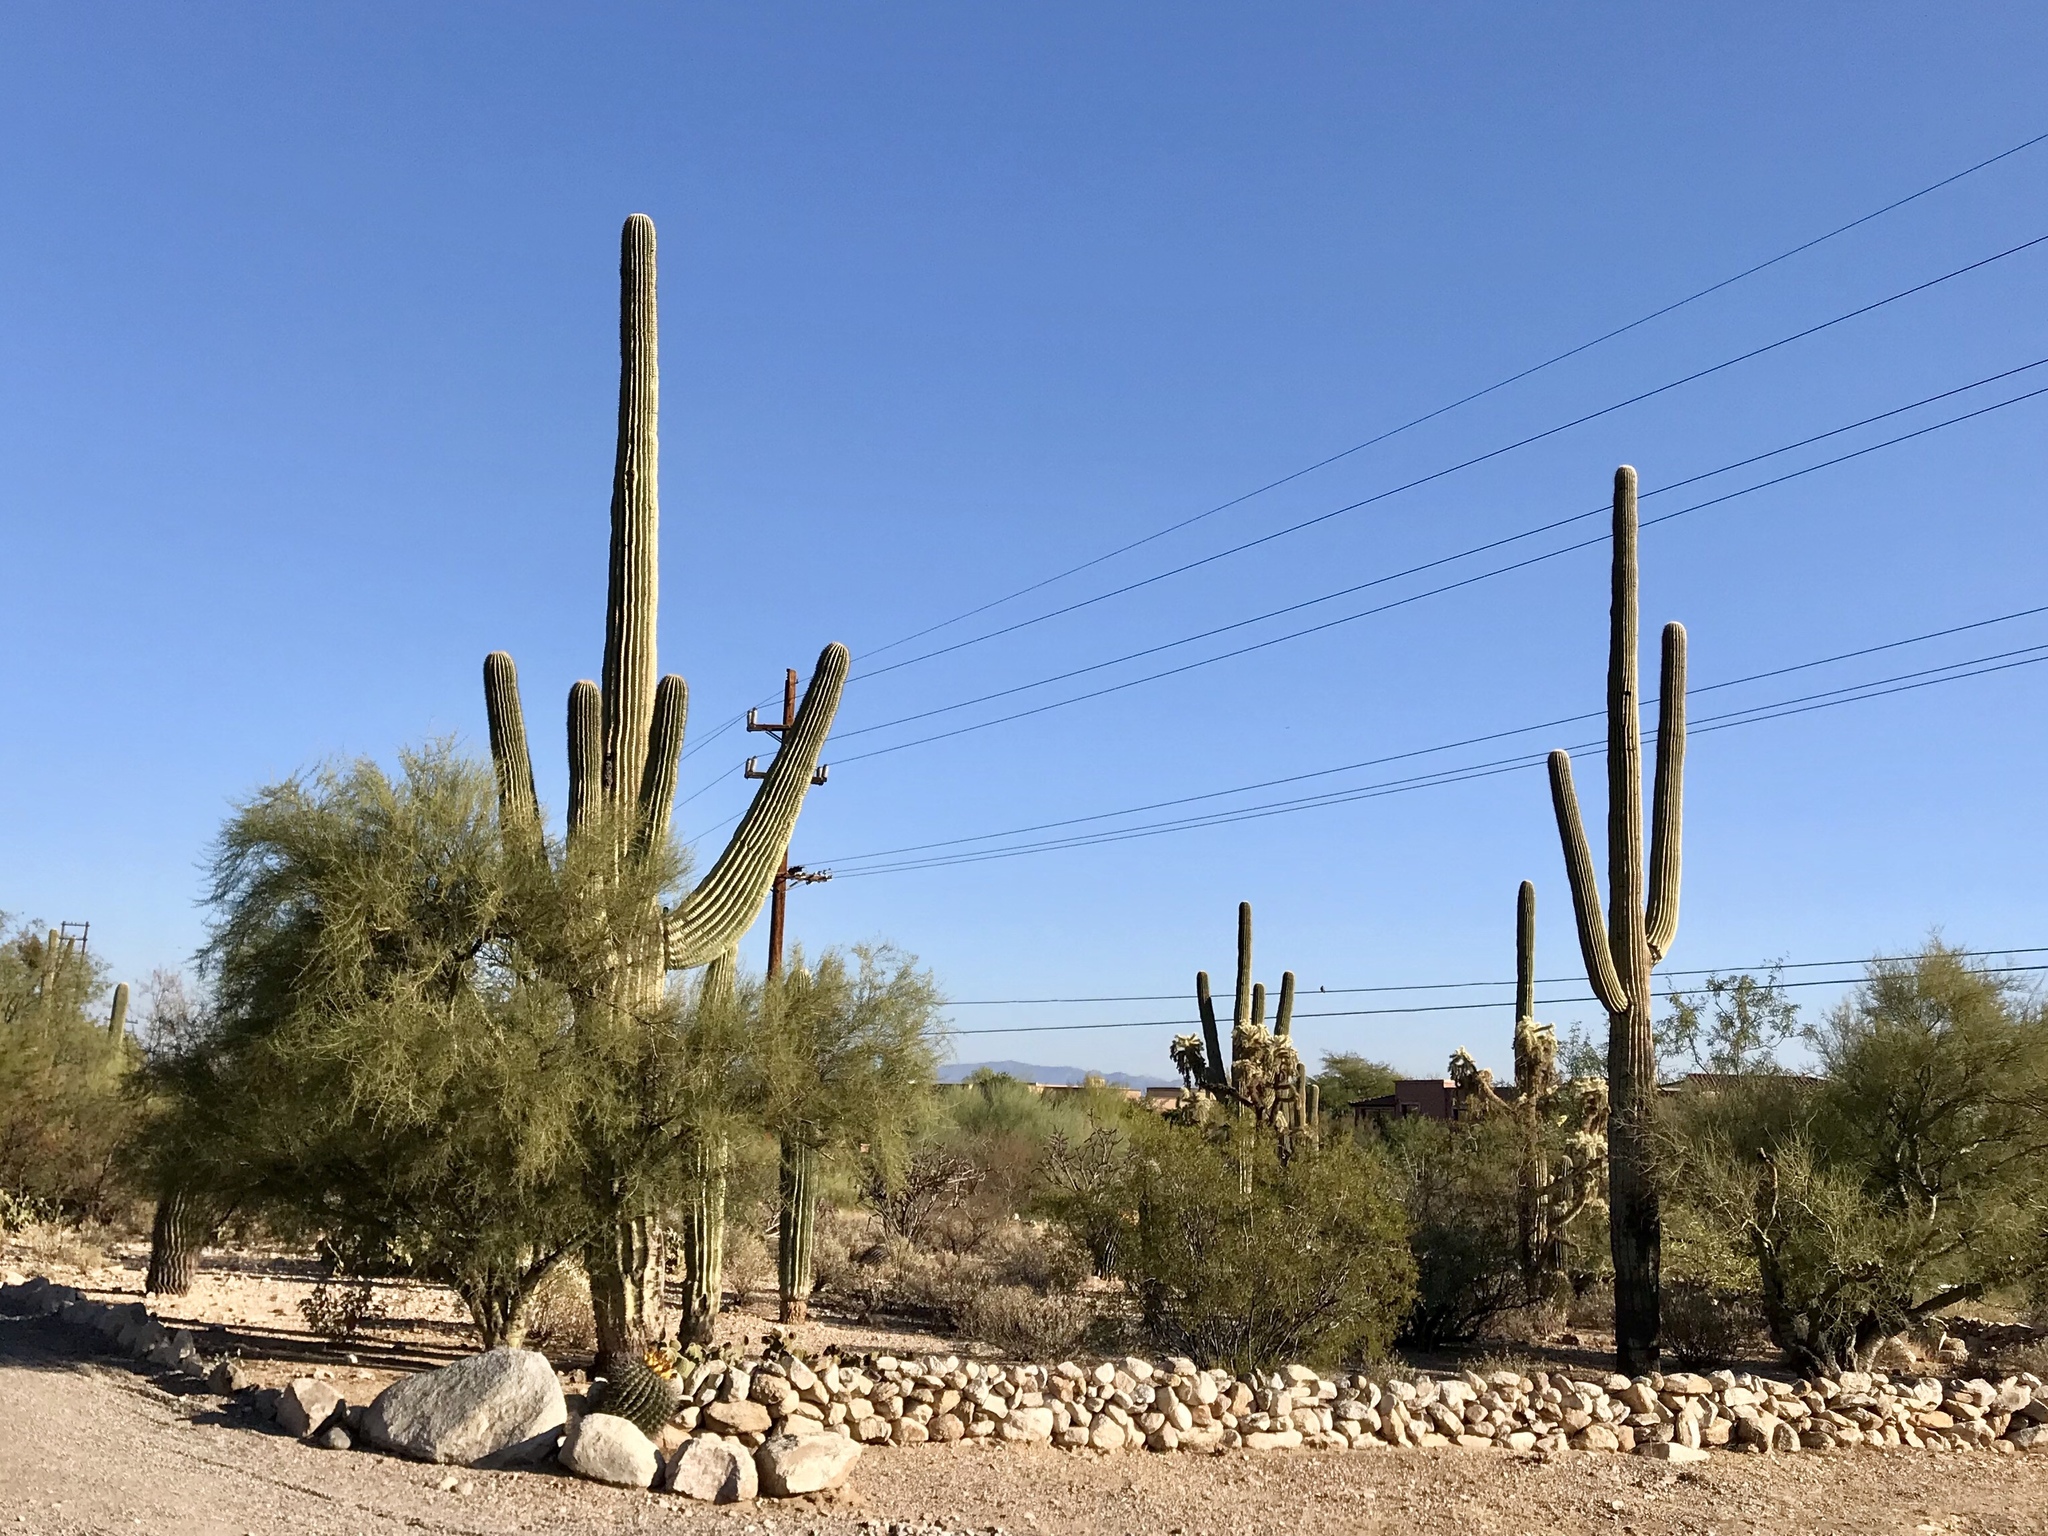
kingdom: Plantae
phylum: Tracheophyta
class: Magnoliopsida
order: Caryophyllales
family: Cactaceae
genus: Carnegiea
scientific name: Carnegiea gigantea
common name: Saguaro
